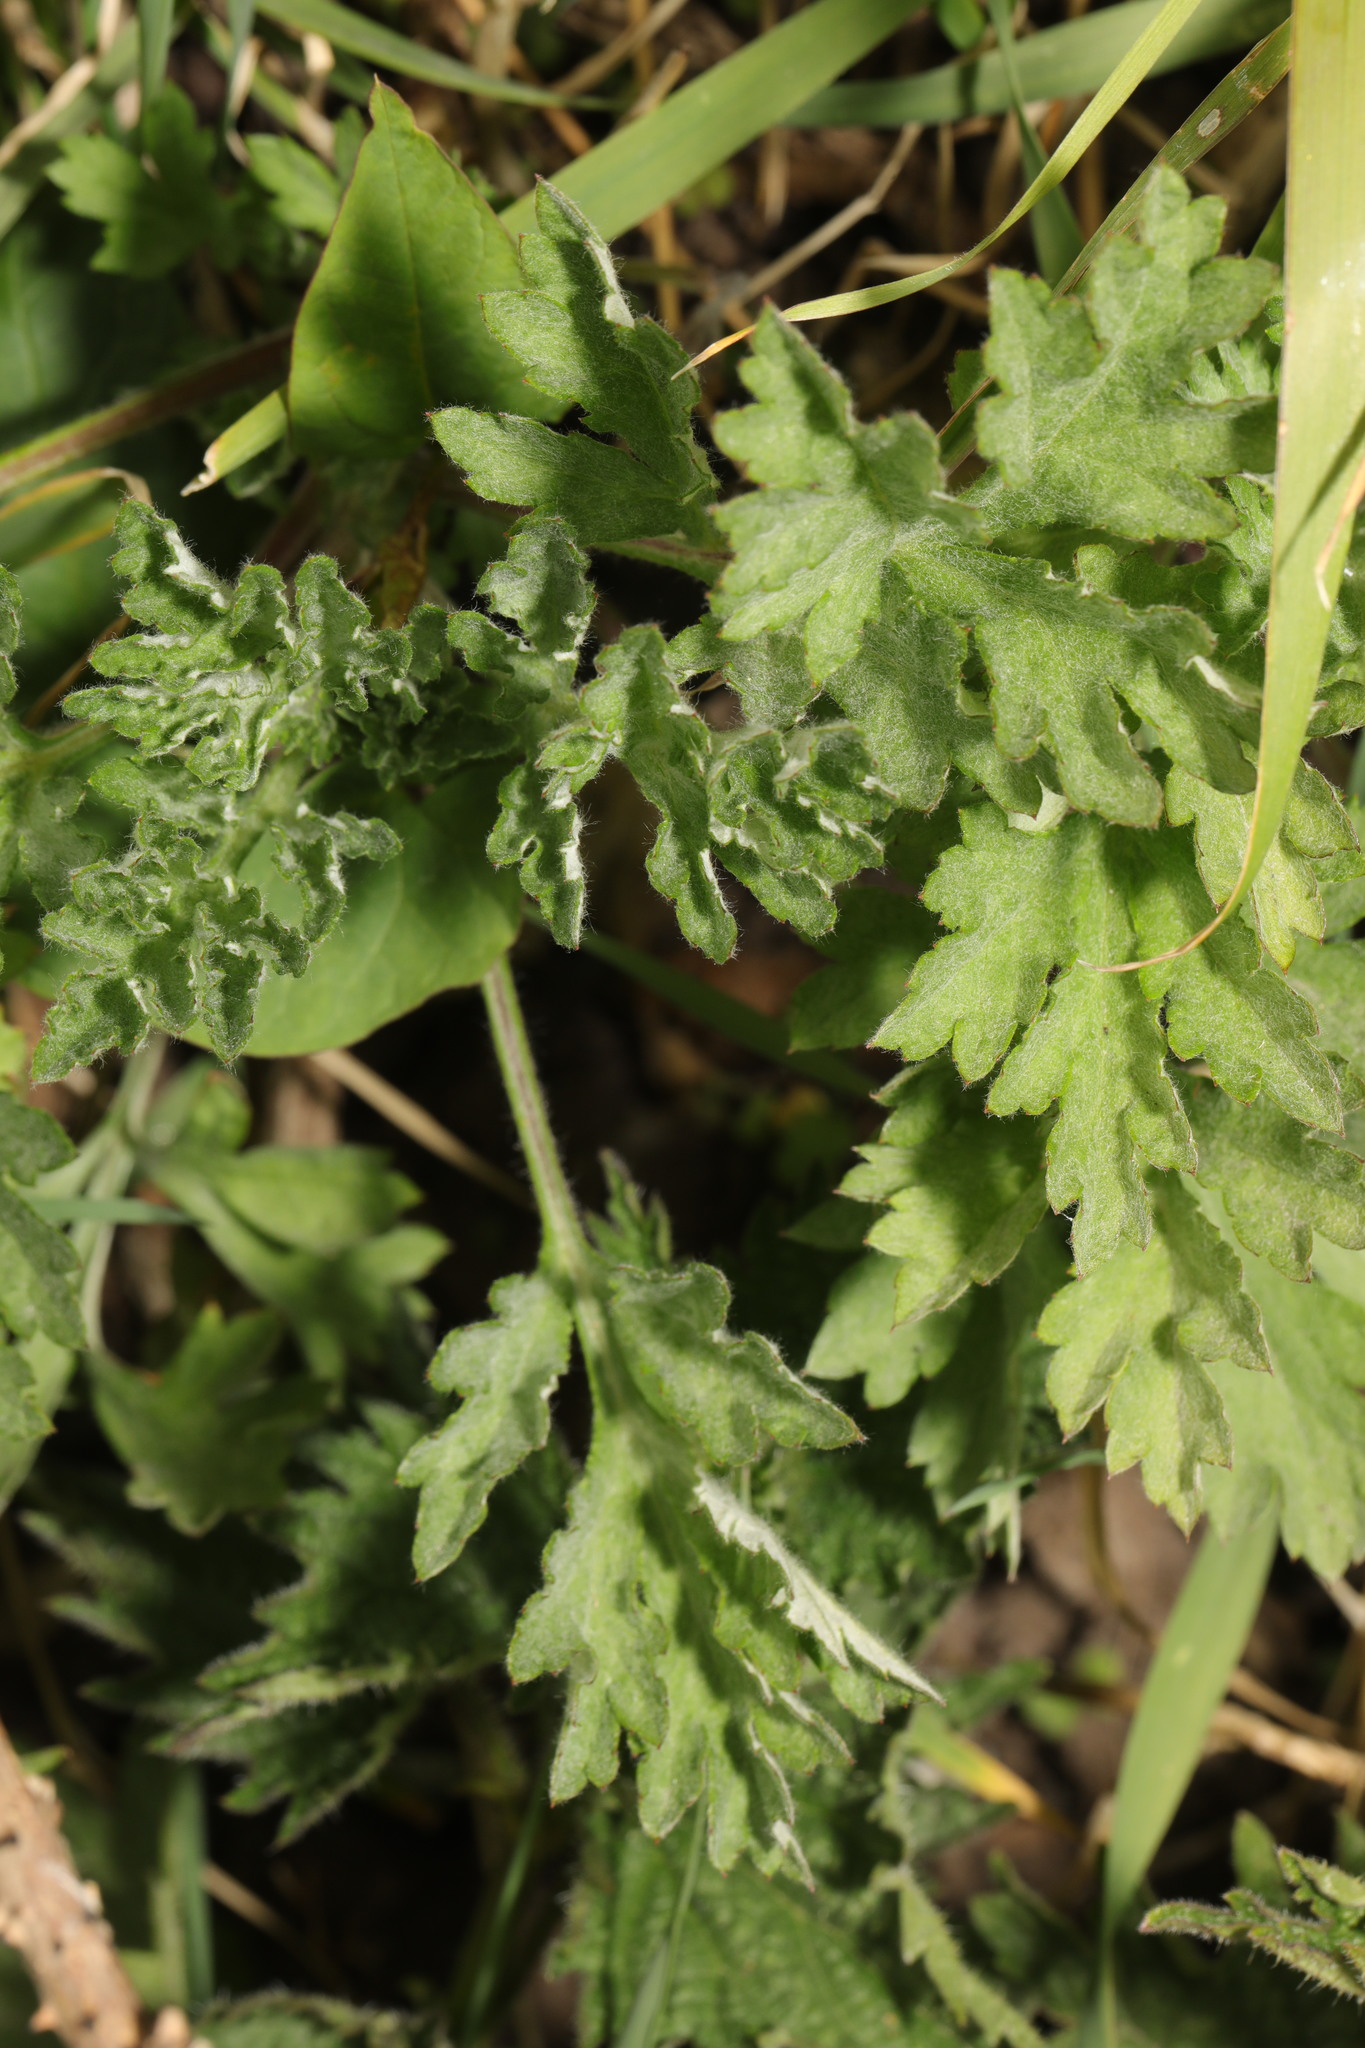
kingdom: Plantae
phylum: Tracheophyta
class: Magnoliopsida
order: Asterales
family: Asteraceae
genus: Artemisia
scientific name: Artemisia vulgaris
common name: Mugwort
